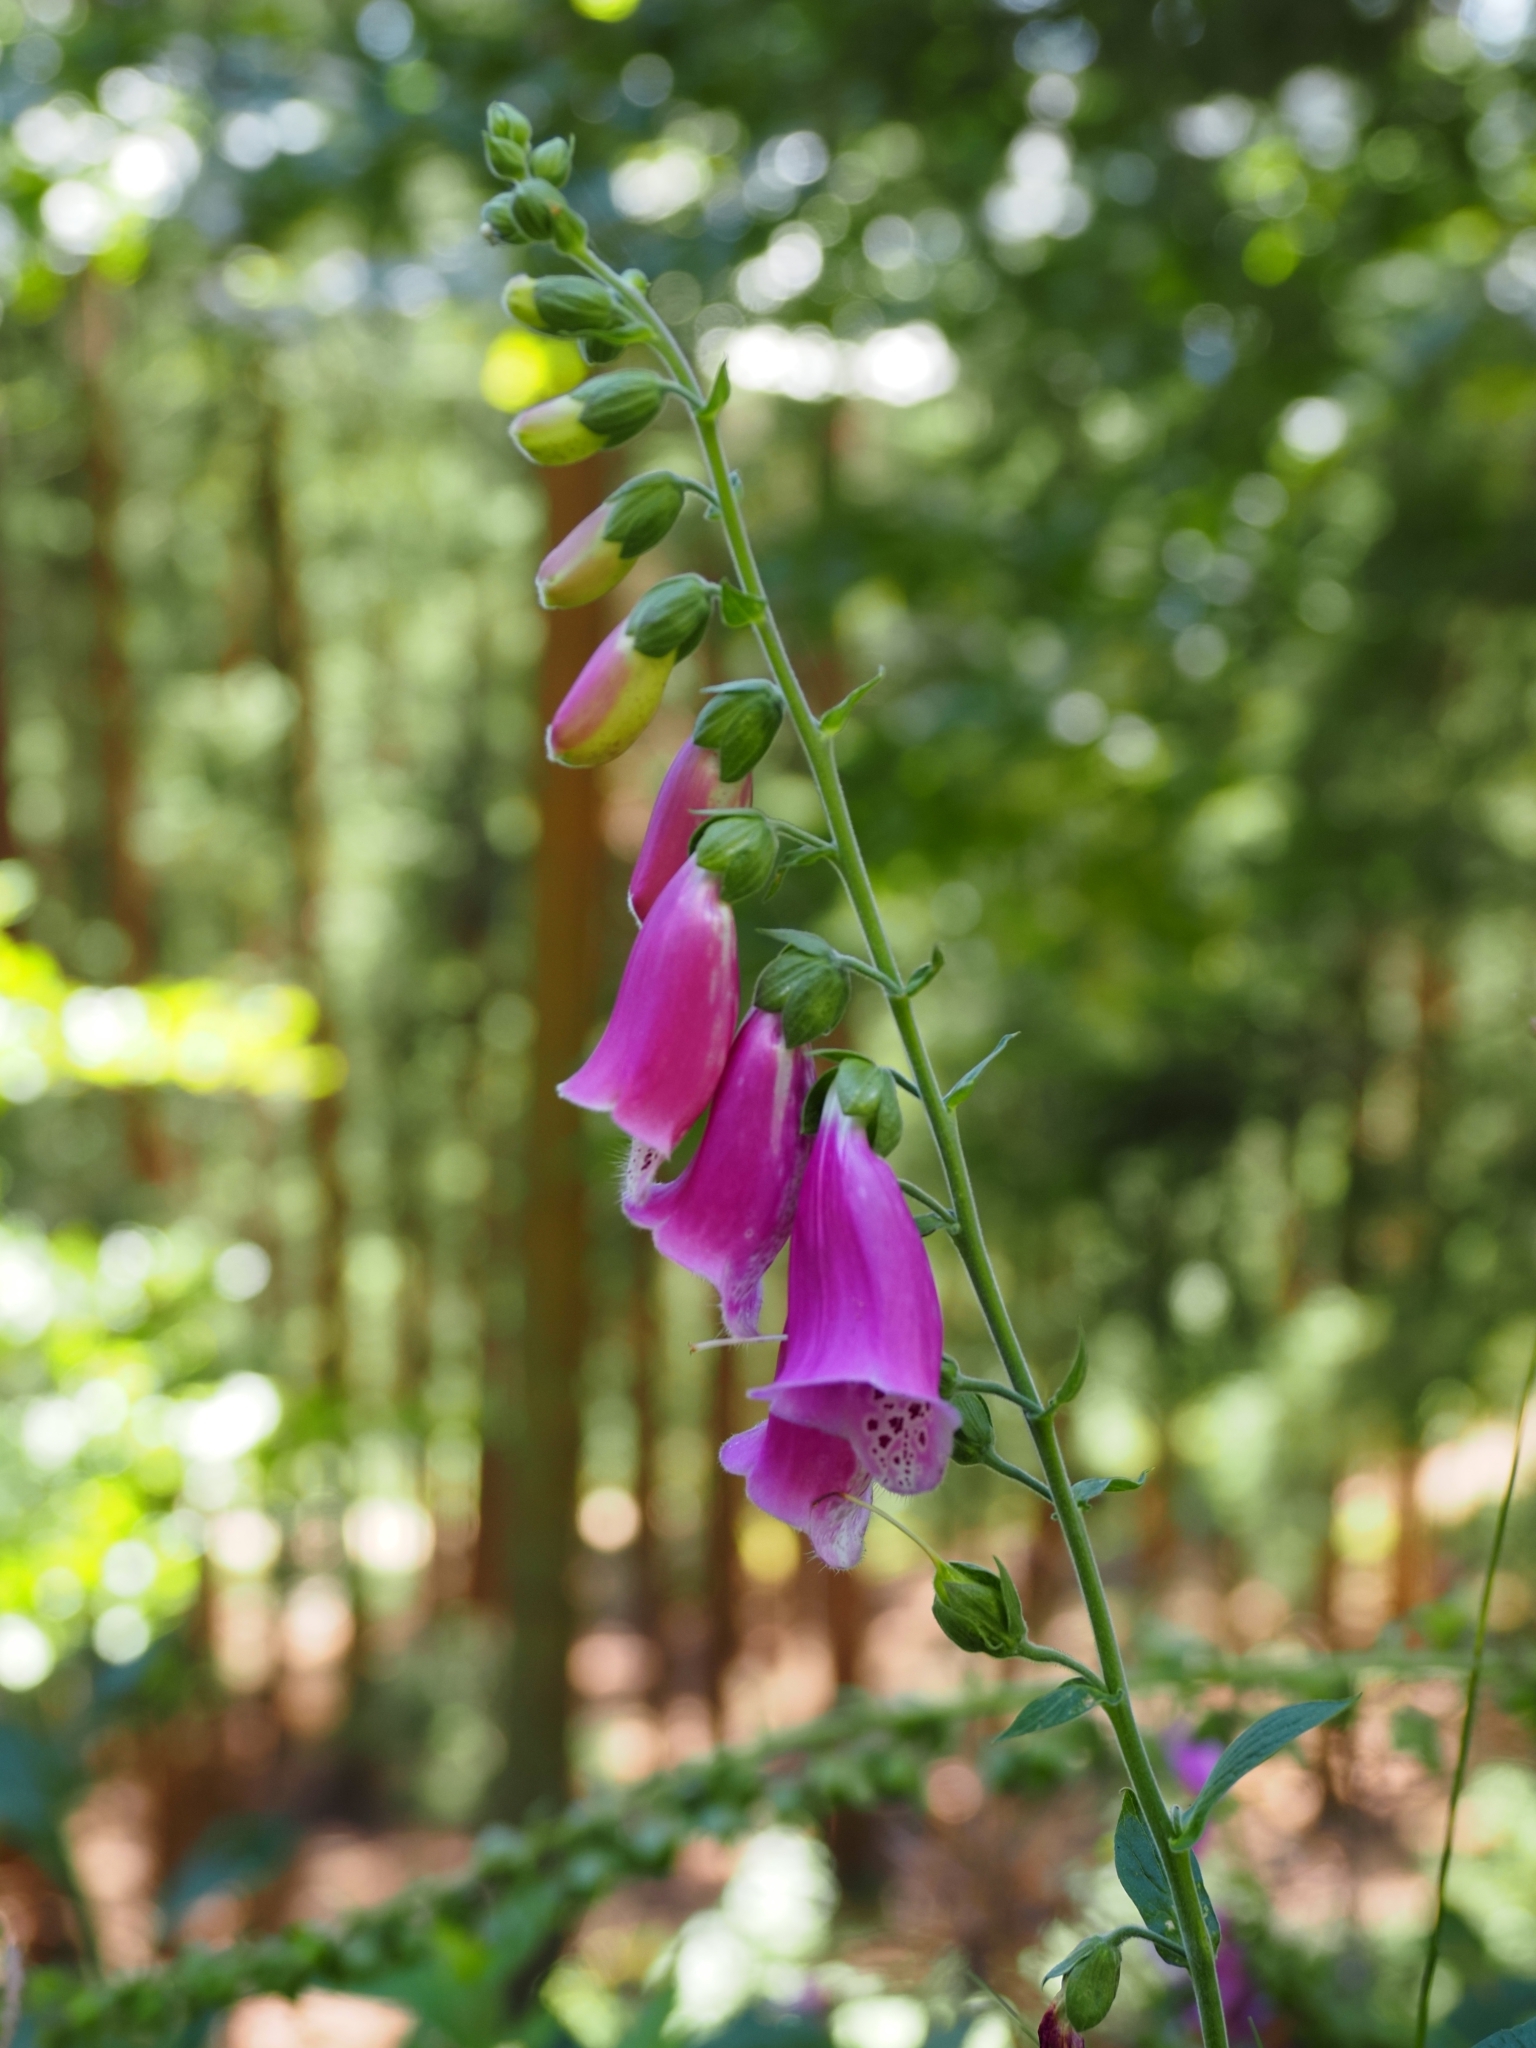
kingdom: Plantae
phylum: Tracheophyta
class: Magnoliopsida
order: Lamiales
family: Plantaginaceae
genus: Digitalis
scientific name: Digitalis purpurea
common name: Foxglove
